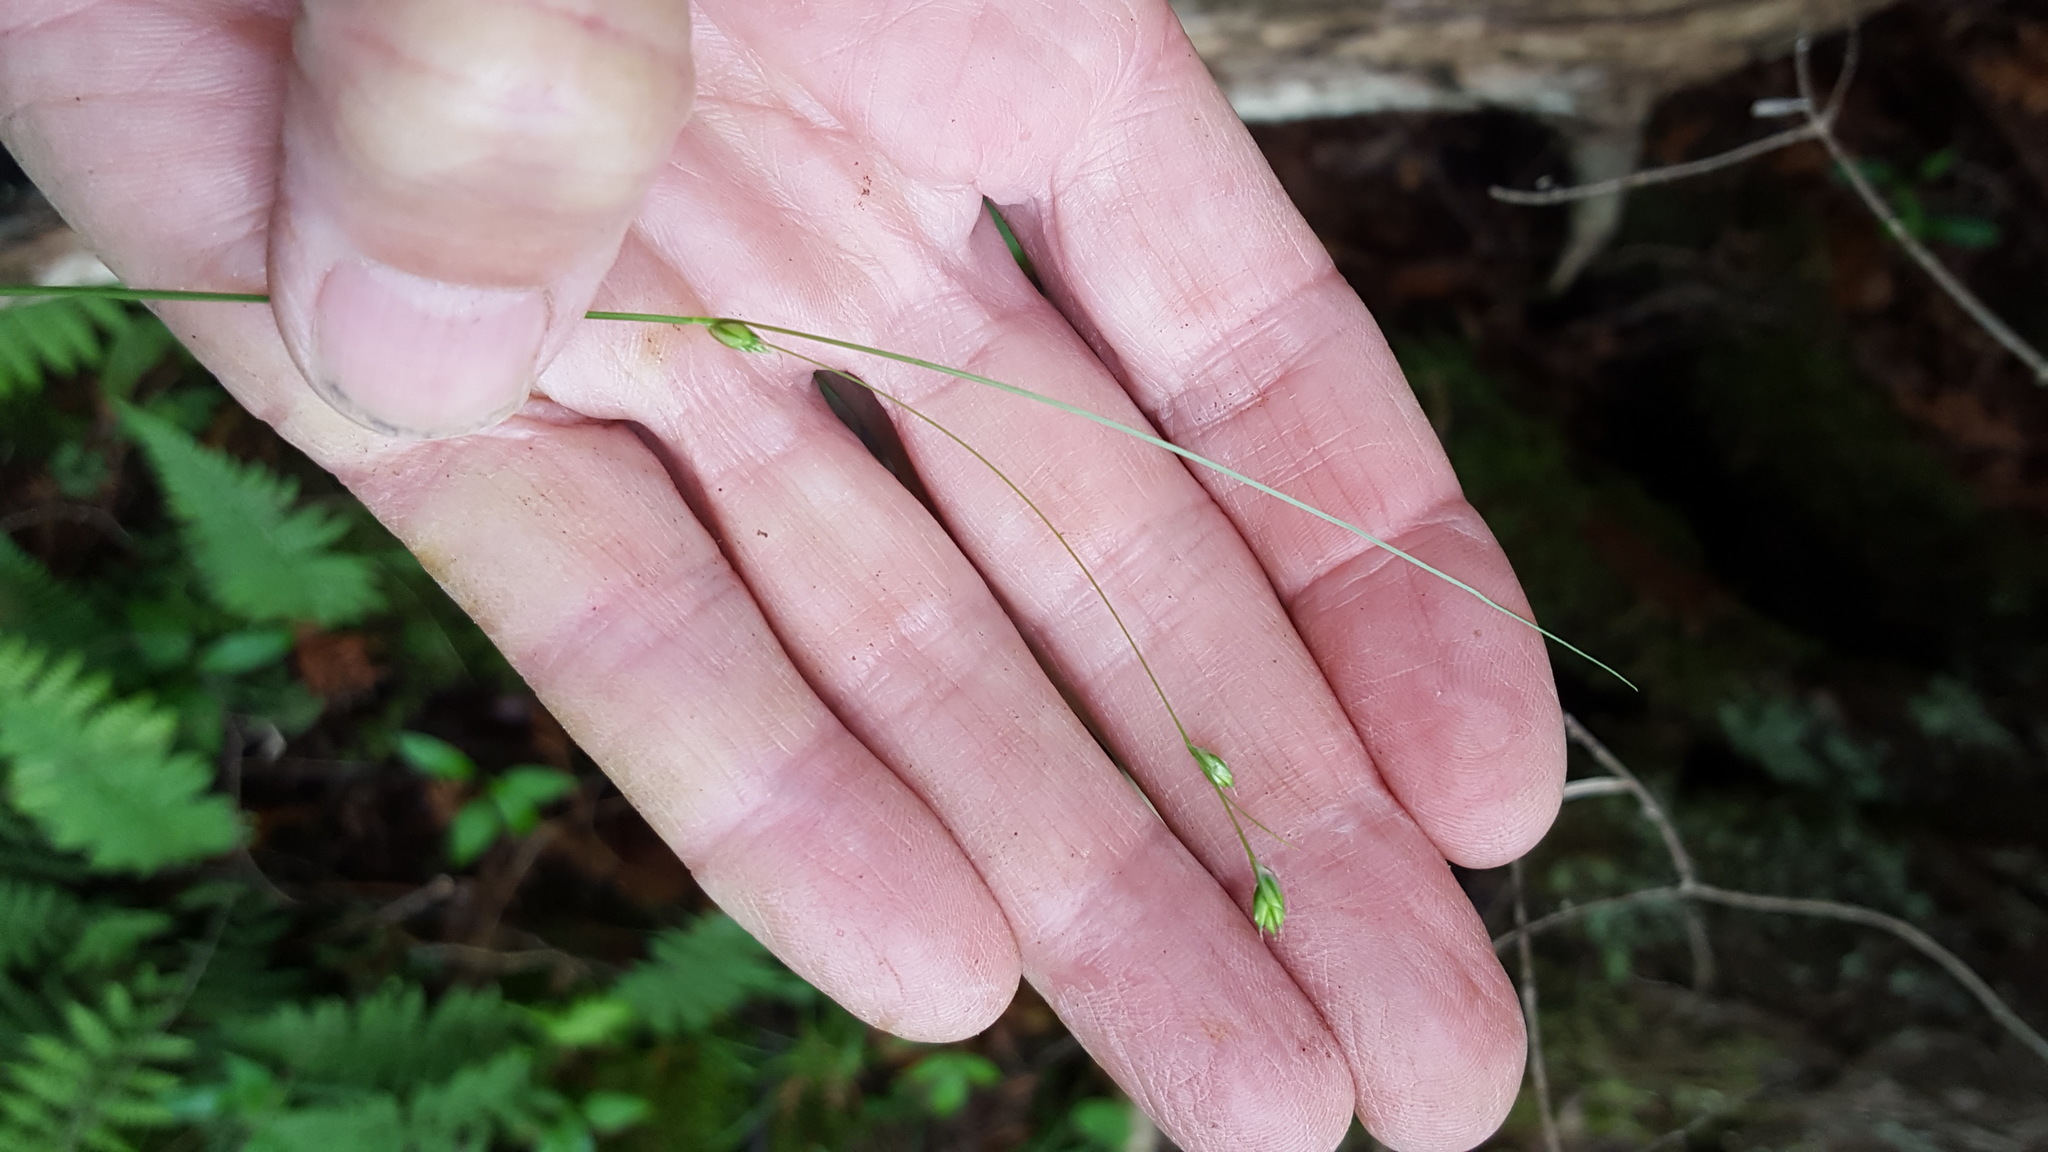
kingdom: Plantae
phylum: Tracheophyta
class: Liliopsida
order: Poales
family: Cyperaceae
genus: Carex
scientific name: Carex trisperma
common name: Three-seeded sedge
